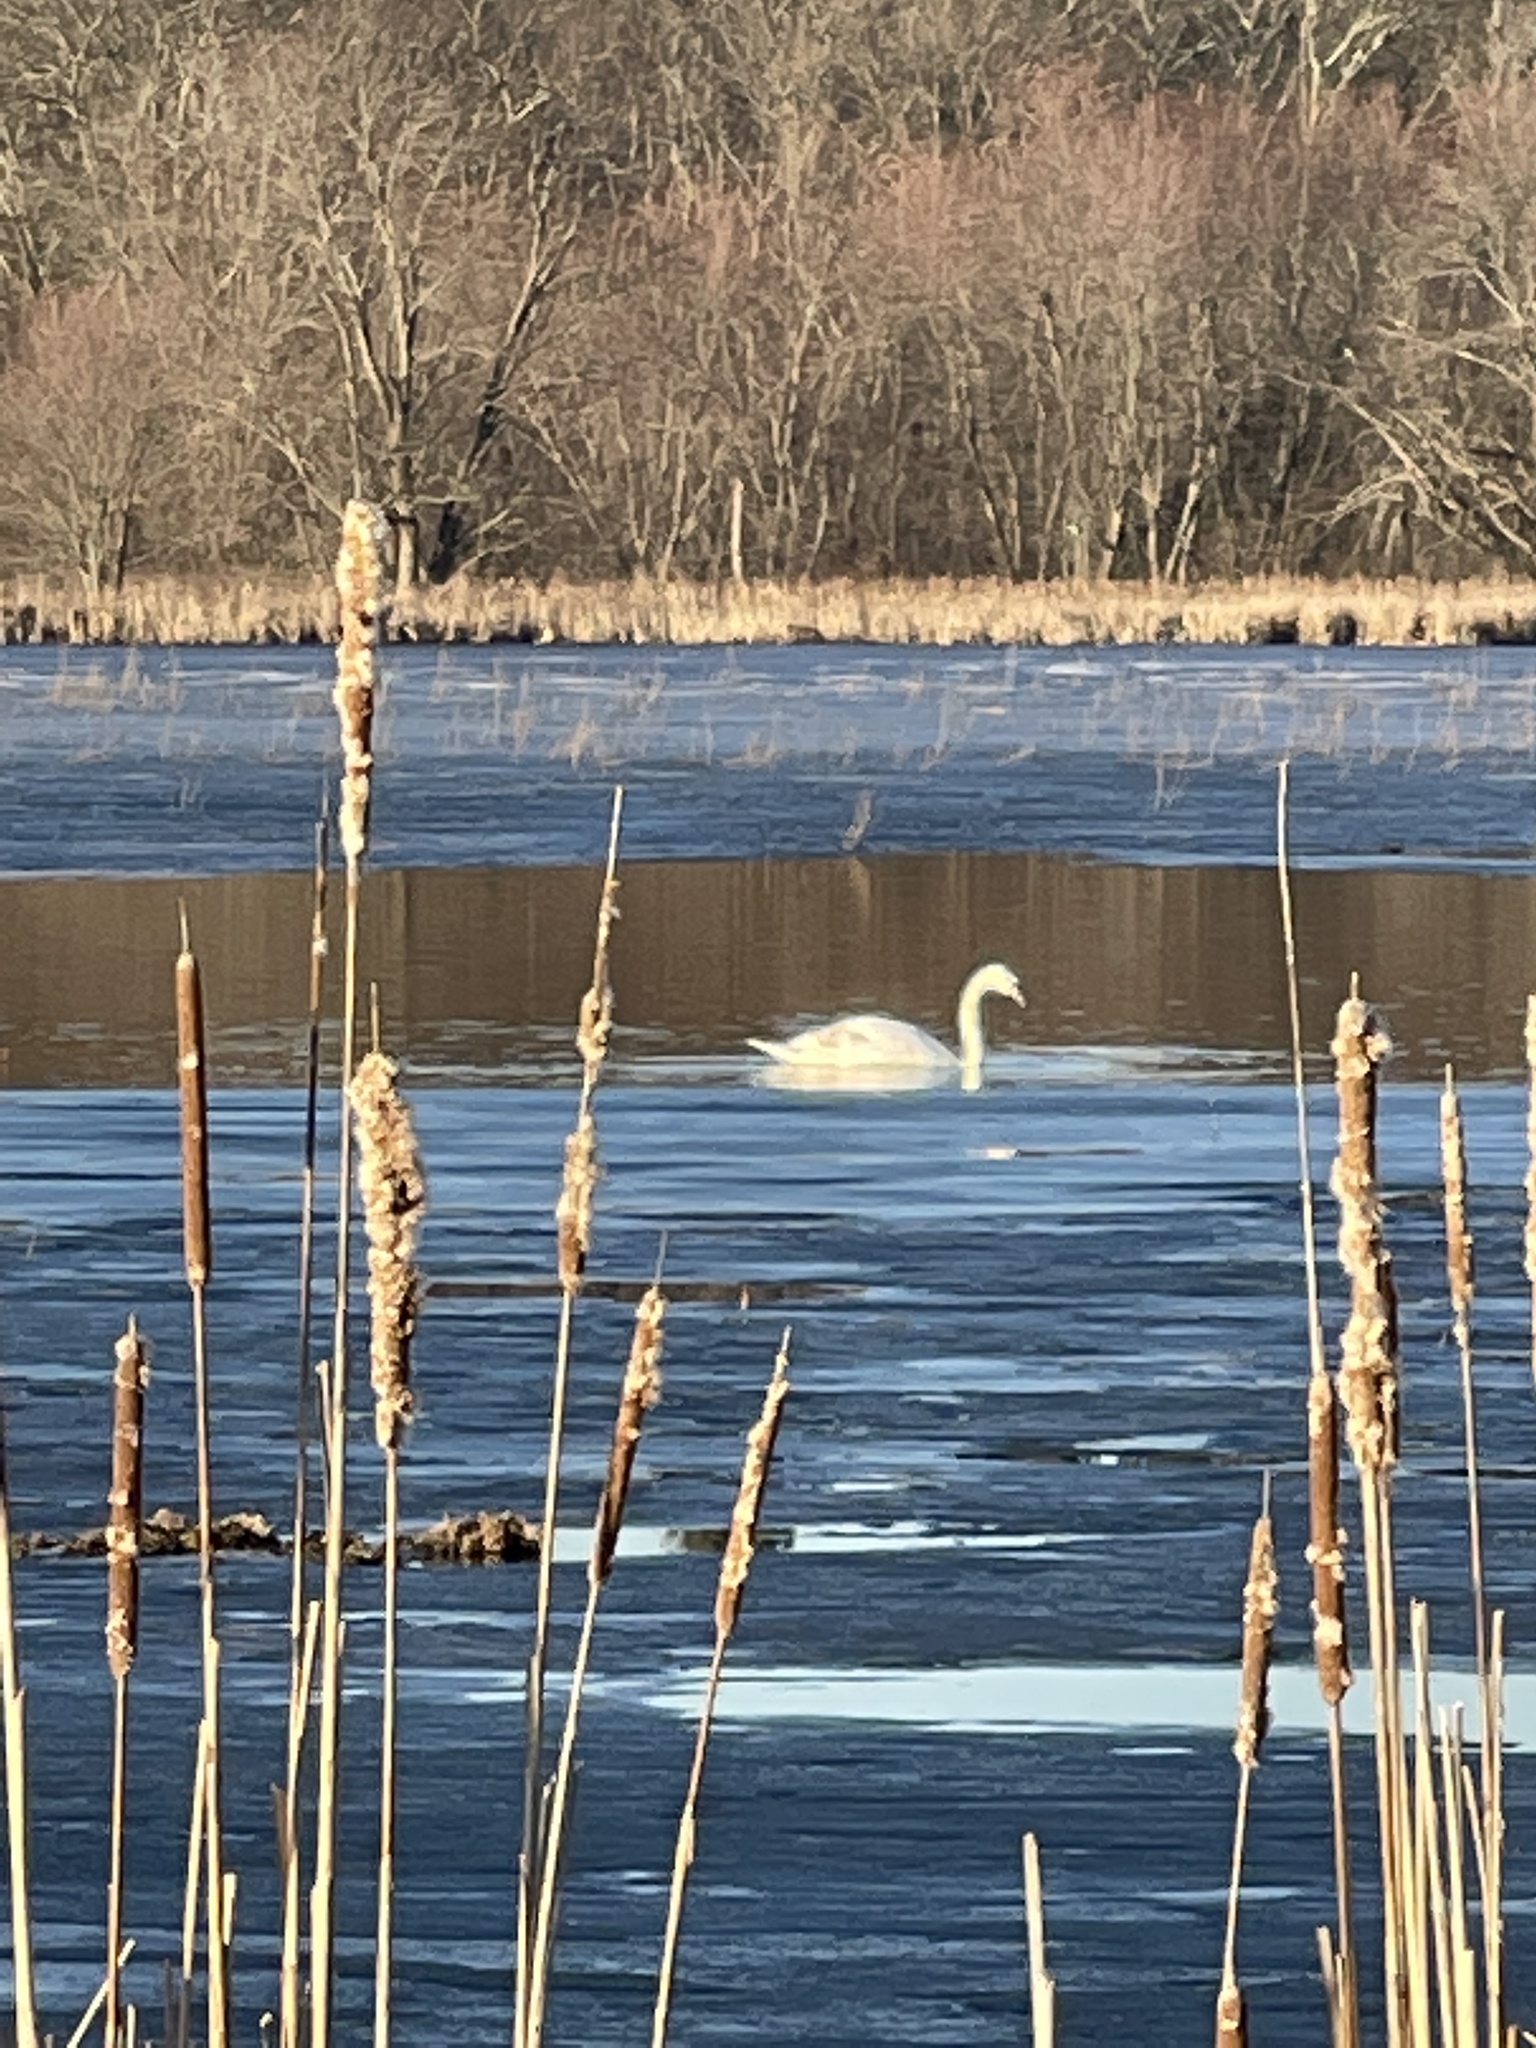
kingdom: Animalia
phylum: Chordata
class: Aves
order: Anseriformes
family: Anatidae
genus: Cygnus
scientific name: Cygnus olor
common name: Mute swan
